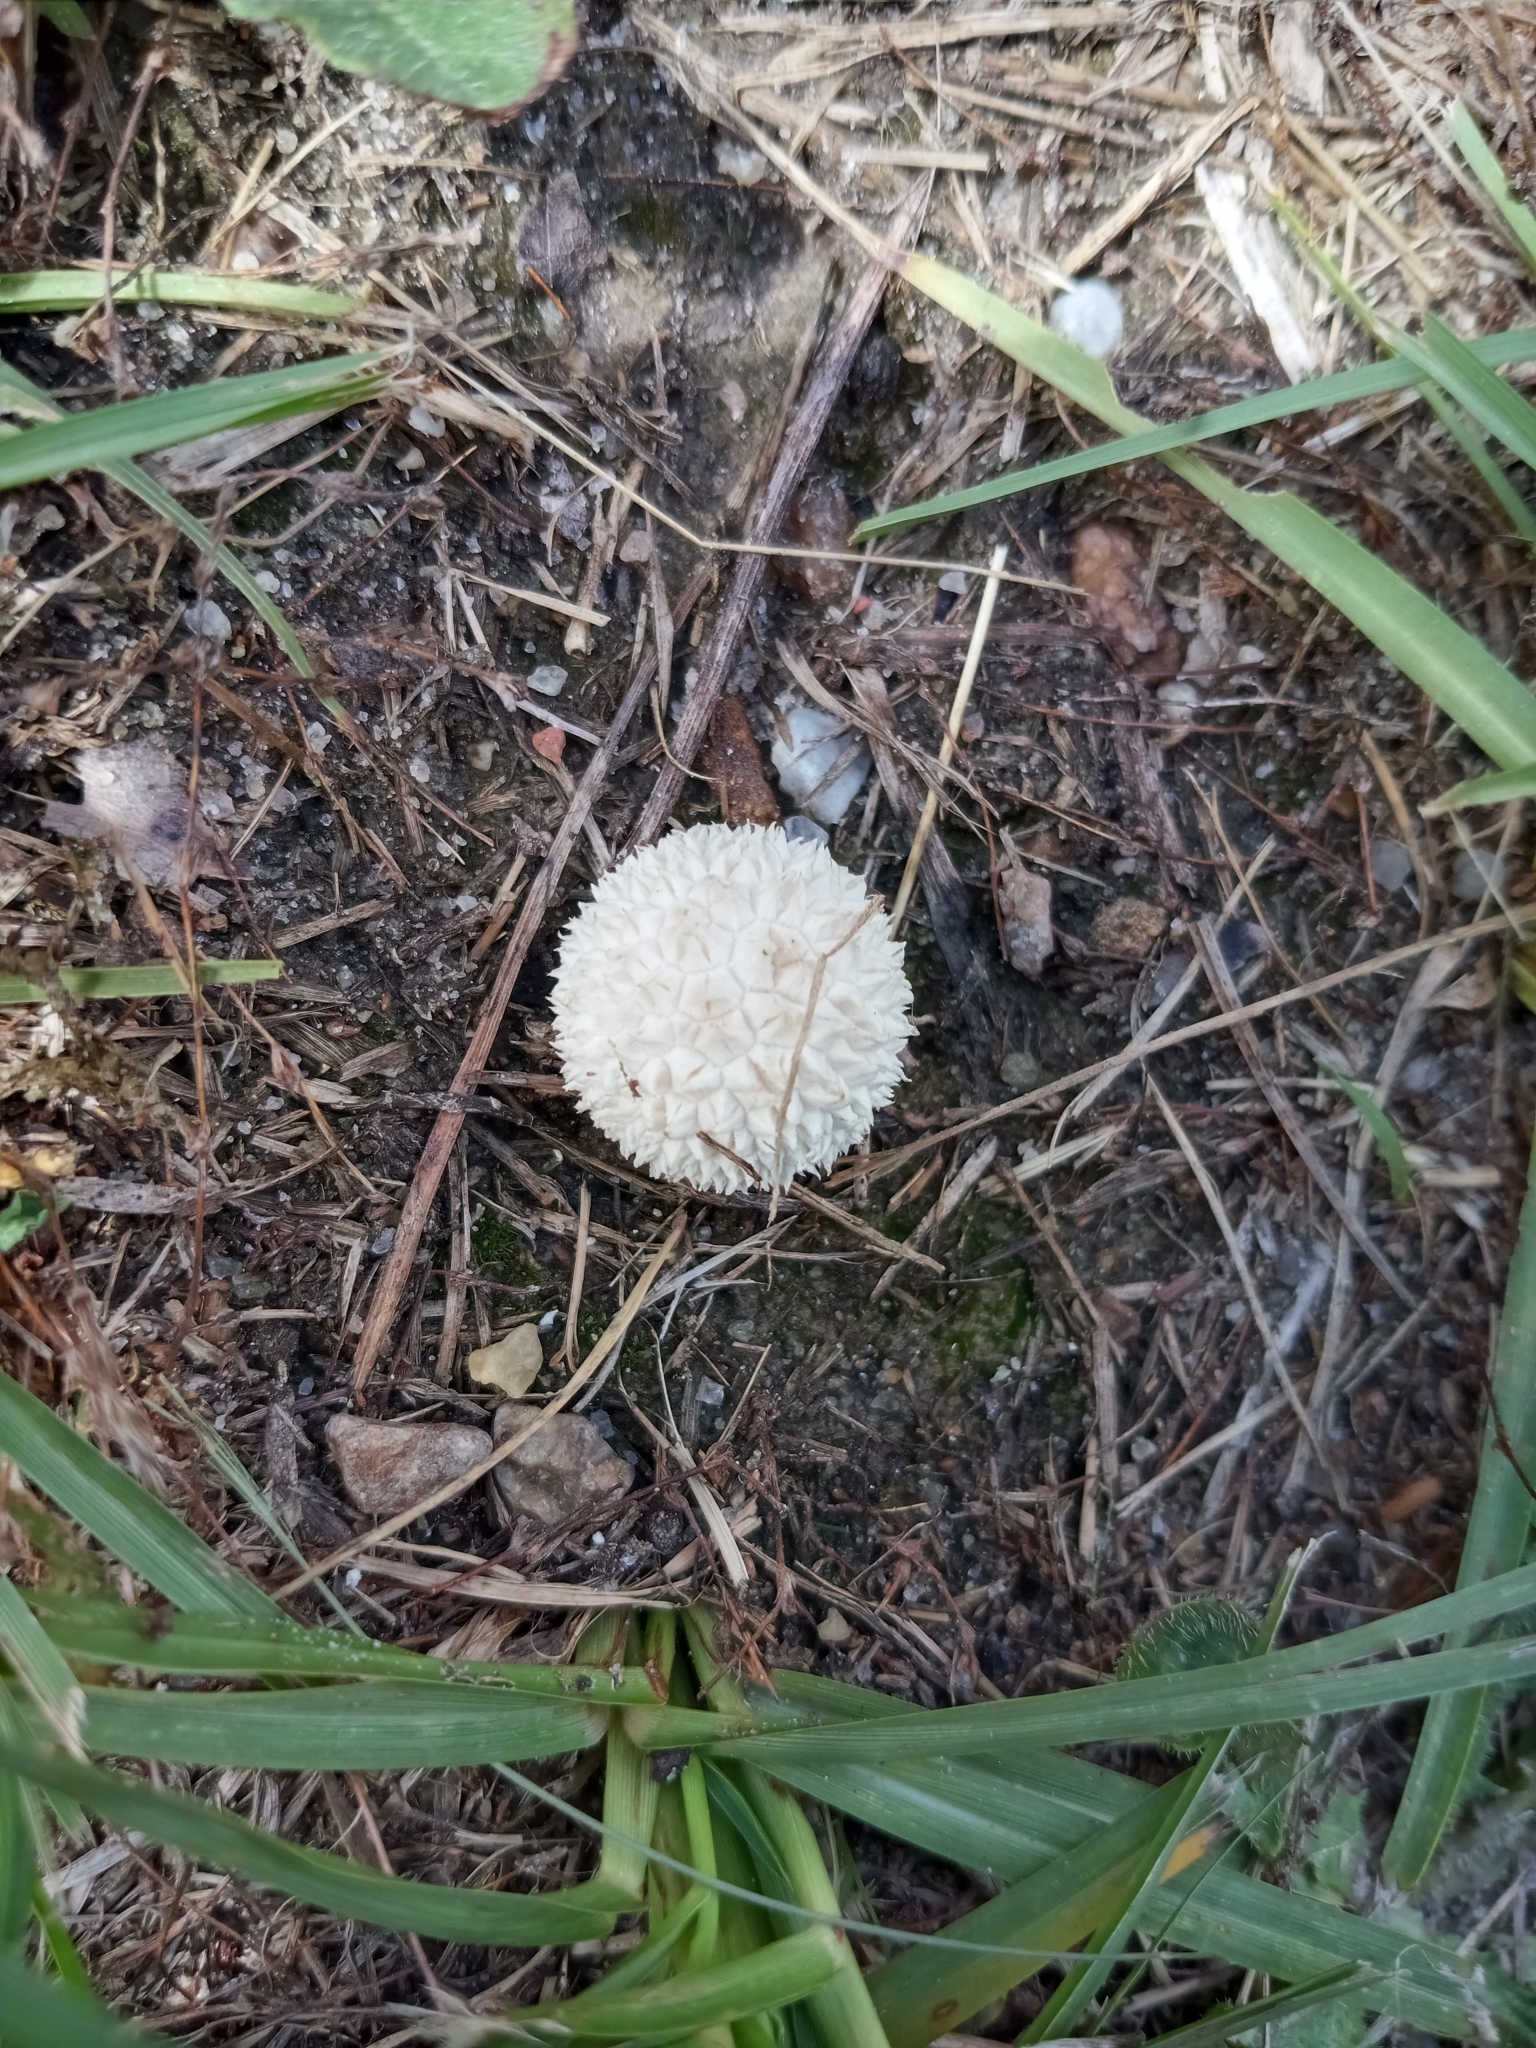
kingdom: Fungi
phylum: Basidiomycota
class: Agaricomycetes
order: Agaricales
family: Agaricaceae
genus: Lycoperdon
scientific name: Lycoperdon marginatum
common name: Peeling puffball
